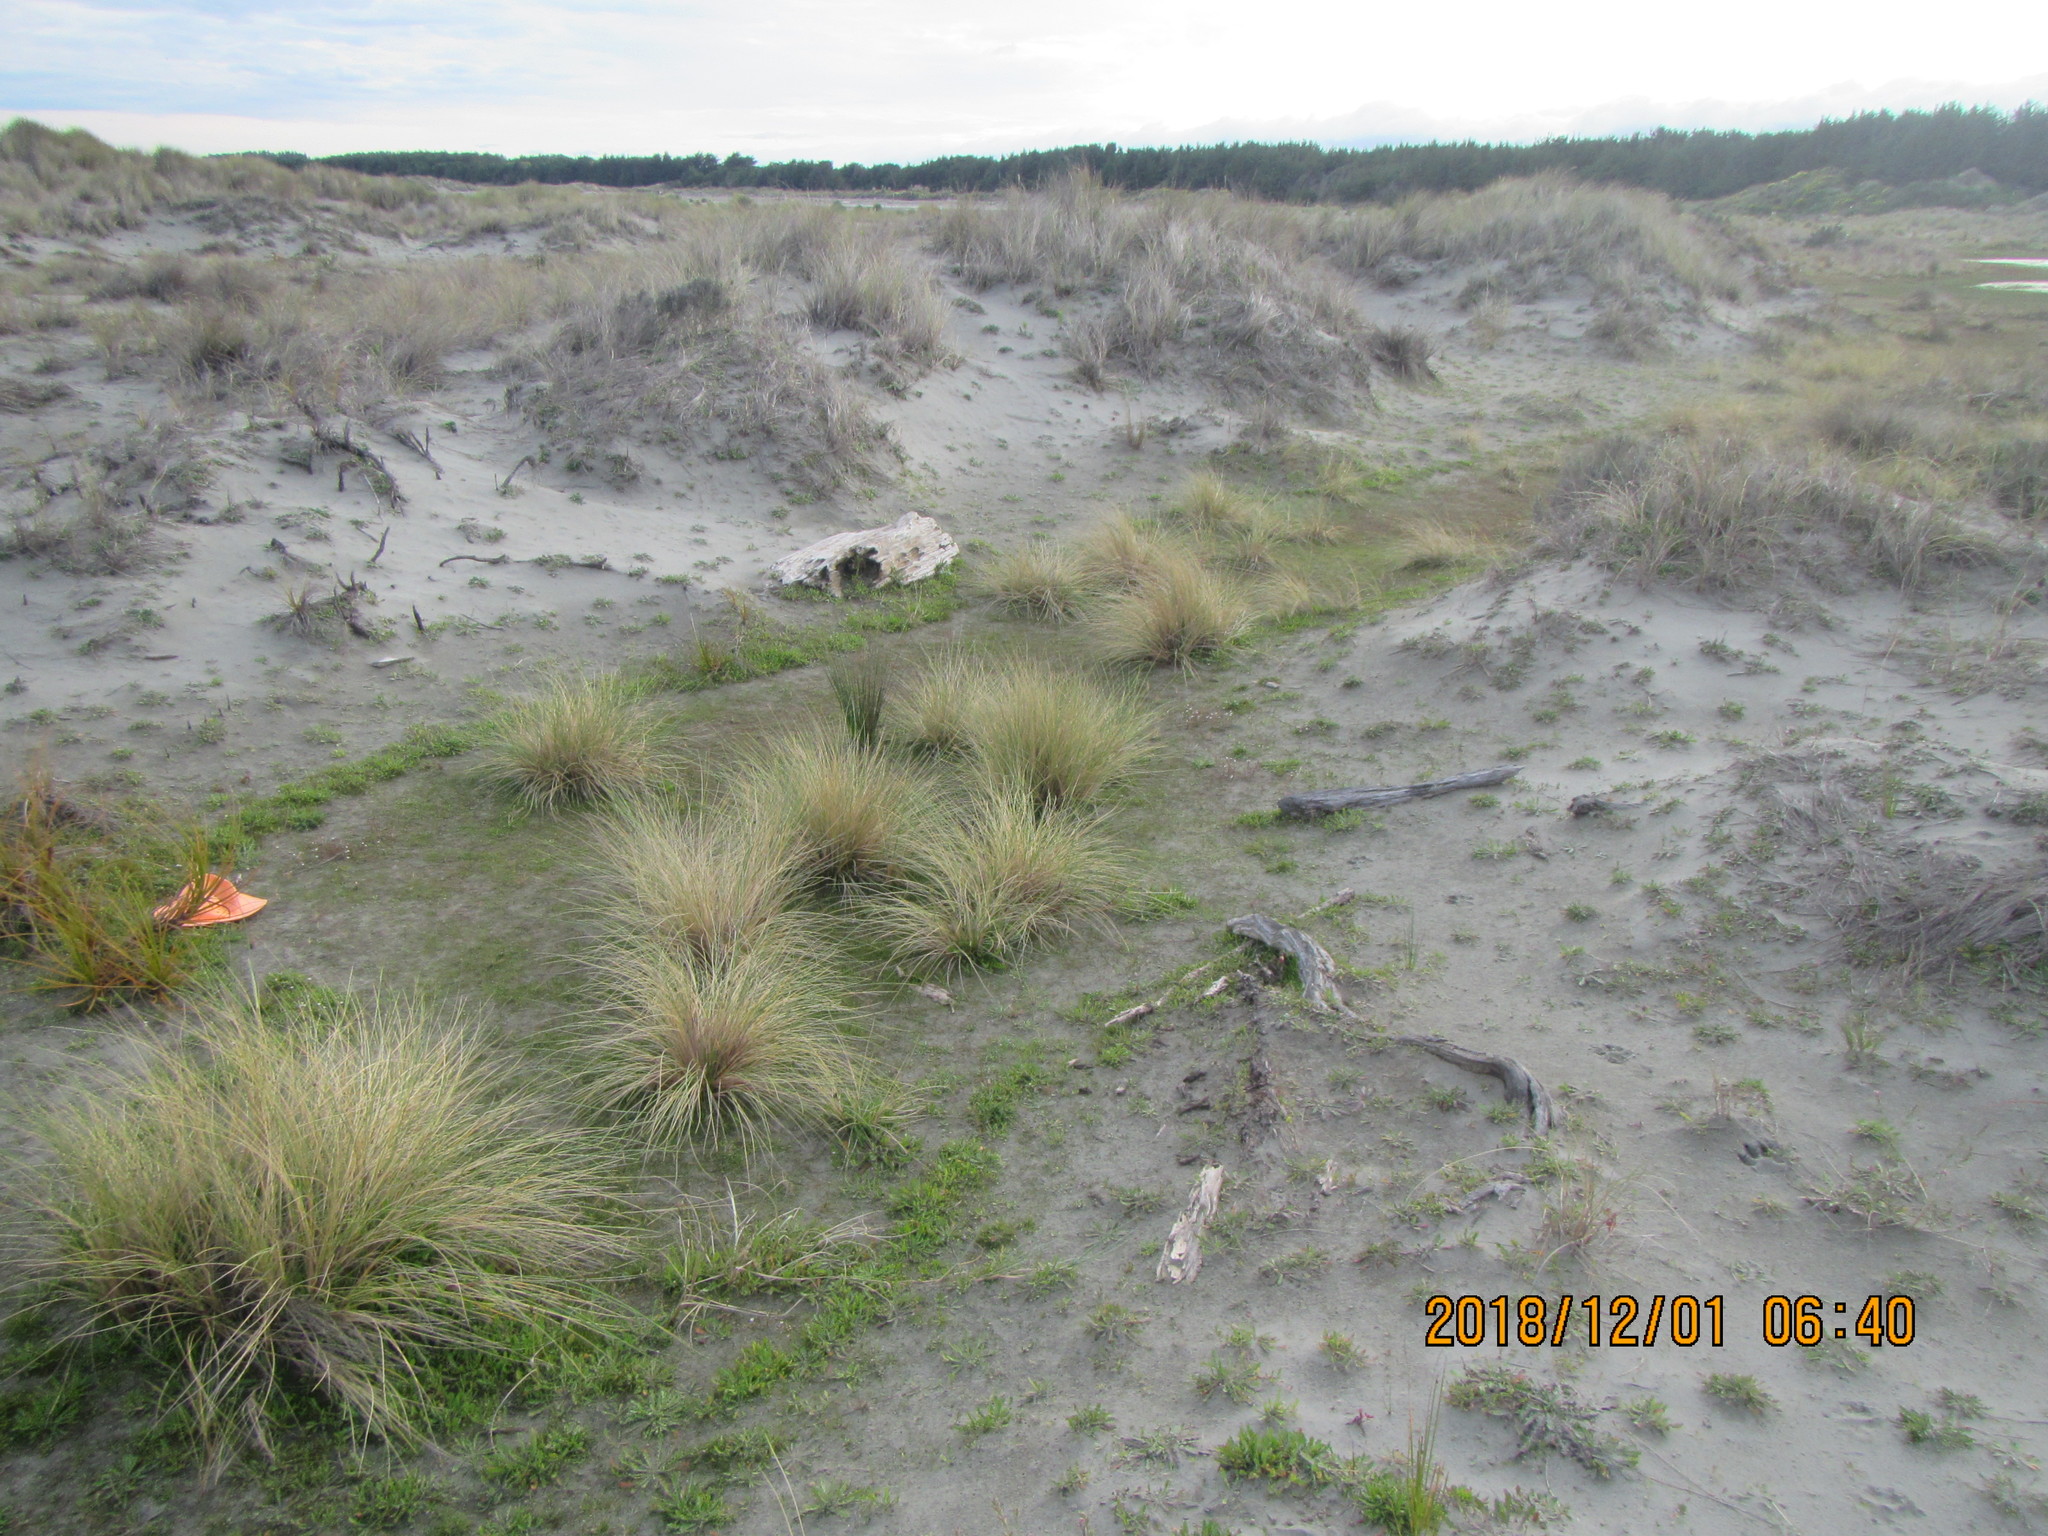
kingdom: Plantae
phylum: Tracheophyta
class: Magnoliopsida
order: Lamiales
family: Plantaginaceae
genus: Plantago
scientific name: Plantago coronopus
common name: Buck's-horn plantain
